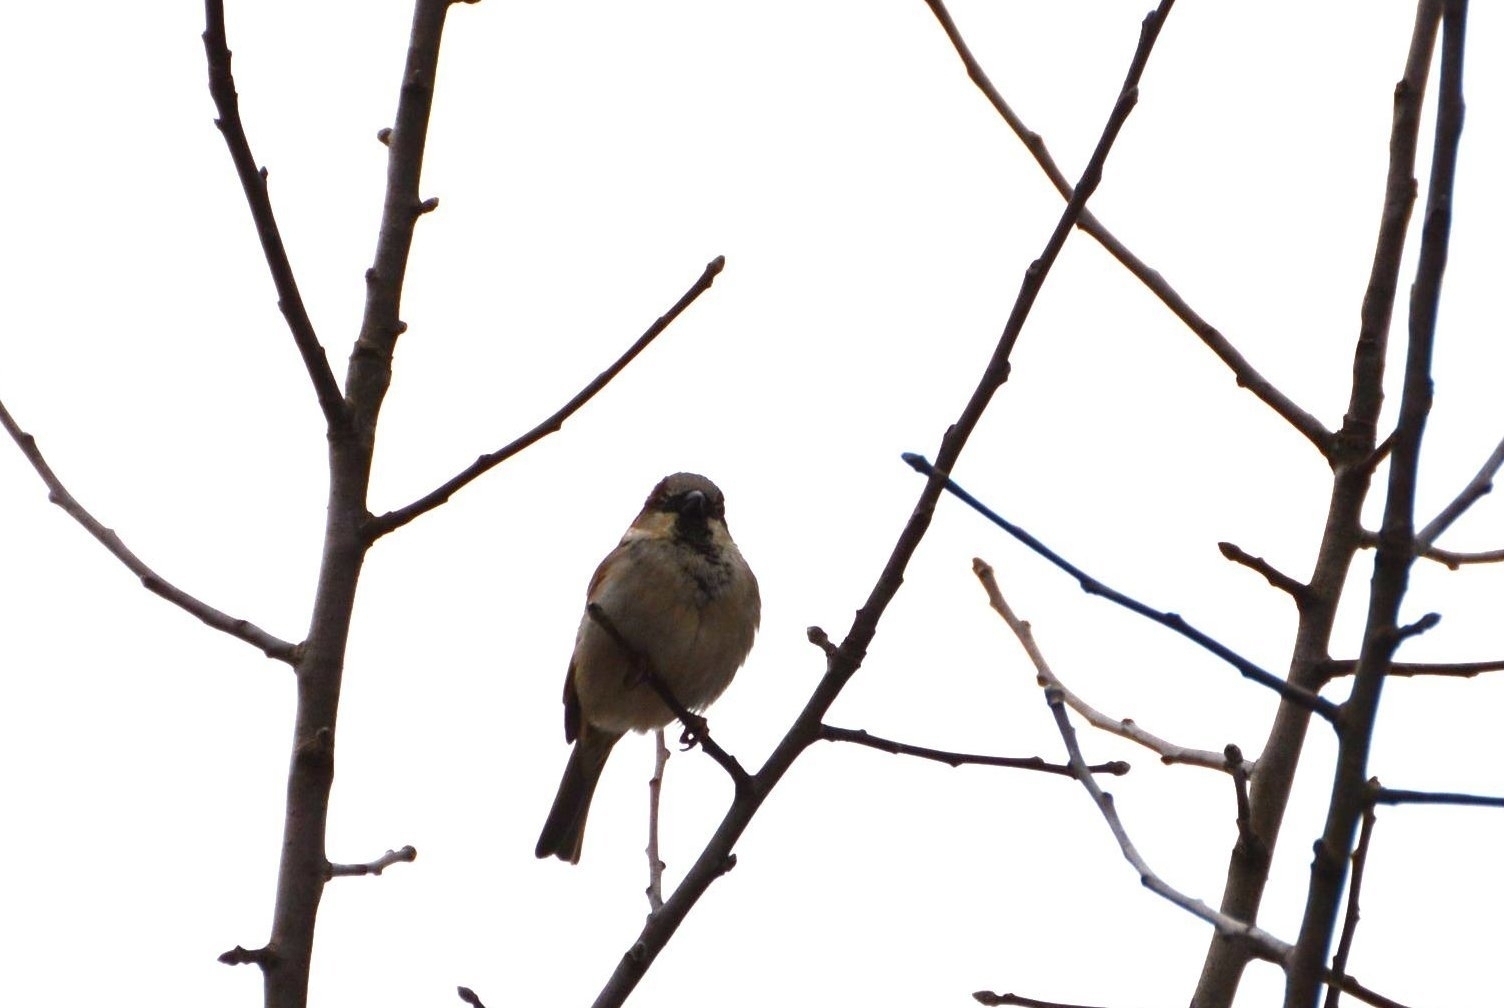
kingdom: Animalia
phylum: Chordata
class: Aves
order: Passeriformes
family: Passeridae
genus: Passer
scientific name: Passer domesticus
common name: House sparrow
